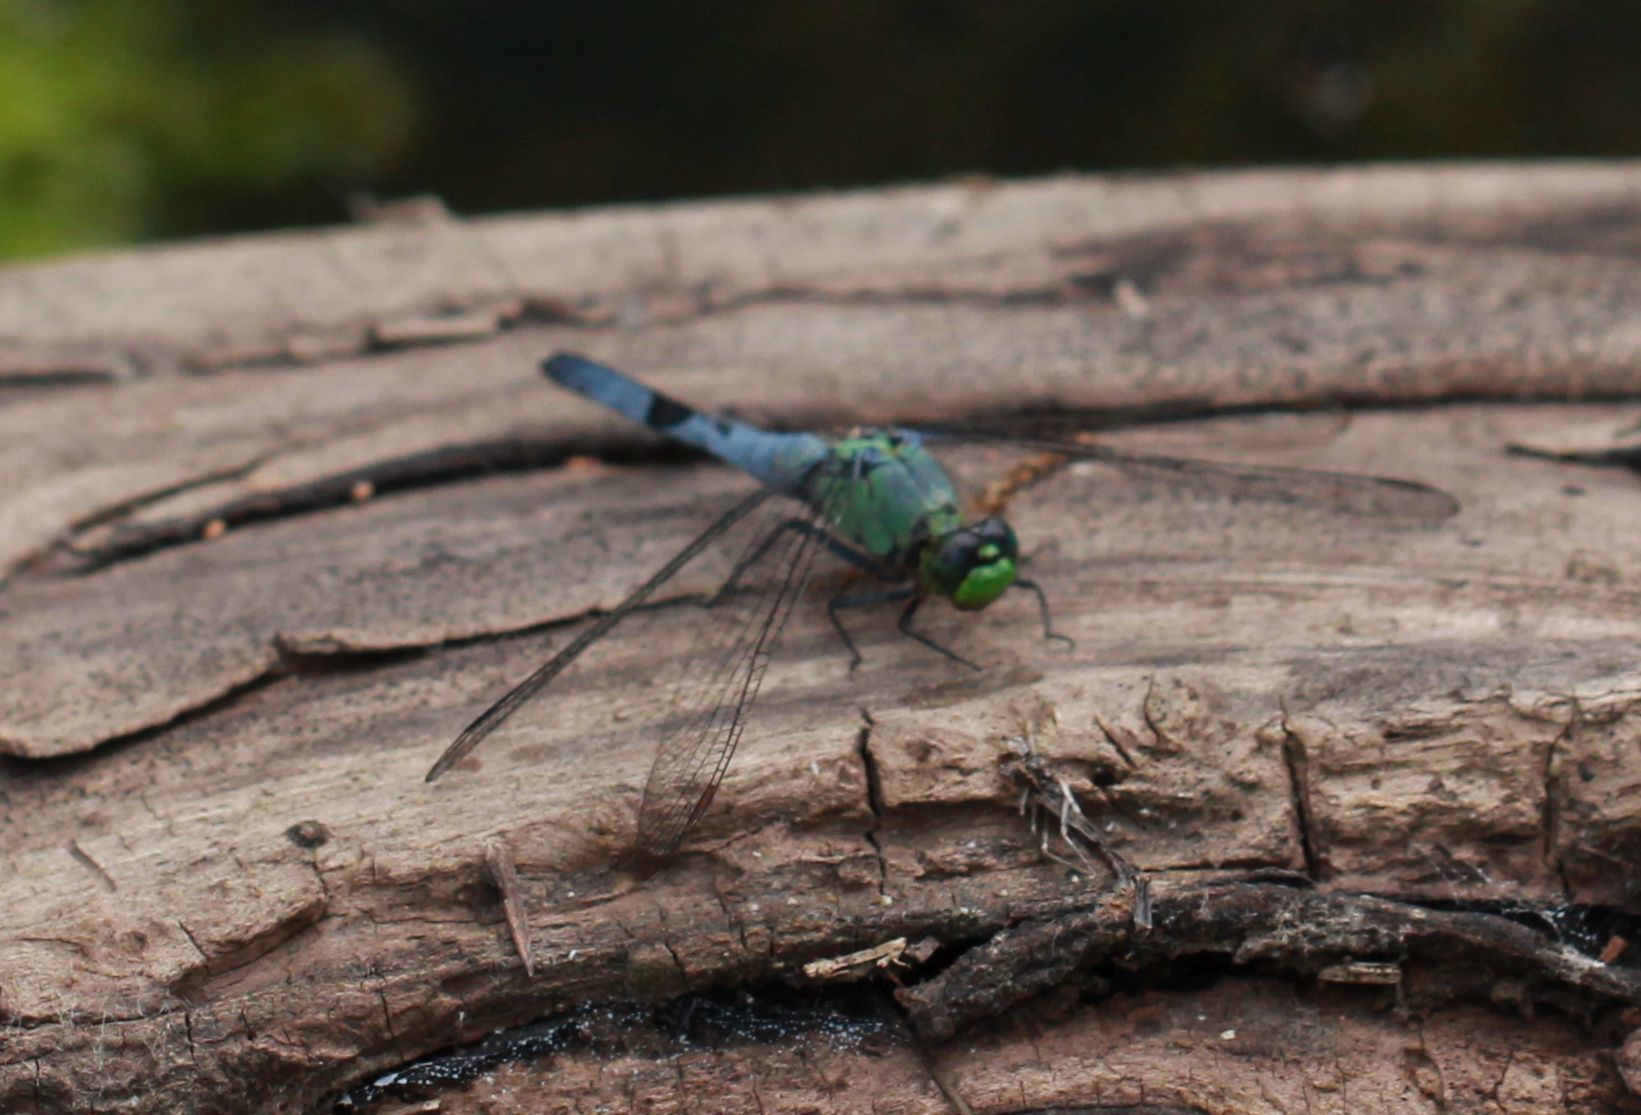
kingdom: Animalia
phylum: Arthropoda
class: Insecta
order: Odonata
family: Libellulidae
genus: Erythemis
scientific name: Erythemis simplicicollis
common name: Eastern pondhawk
